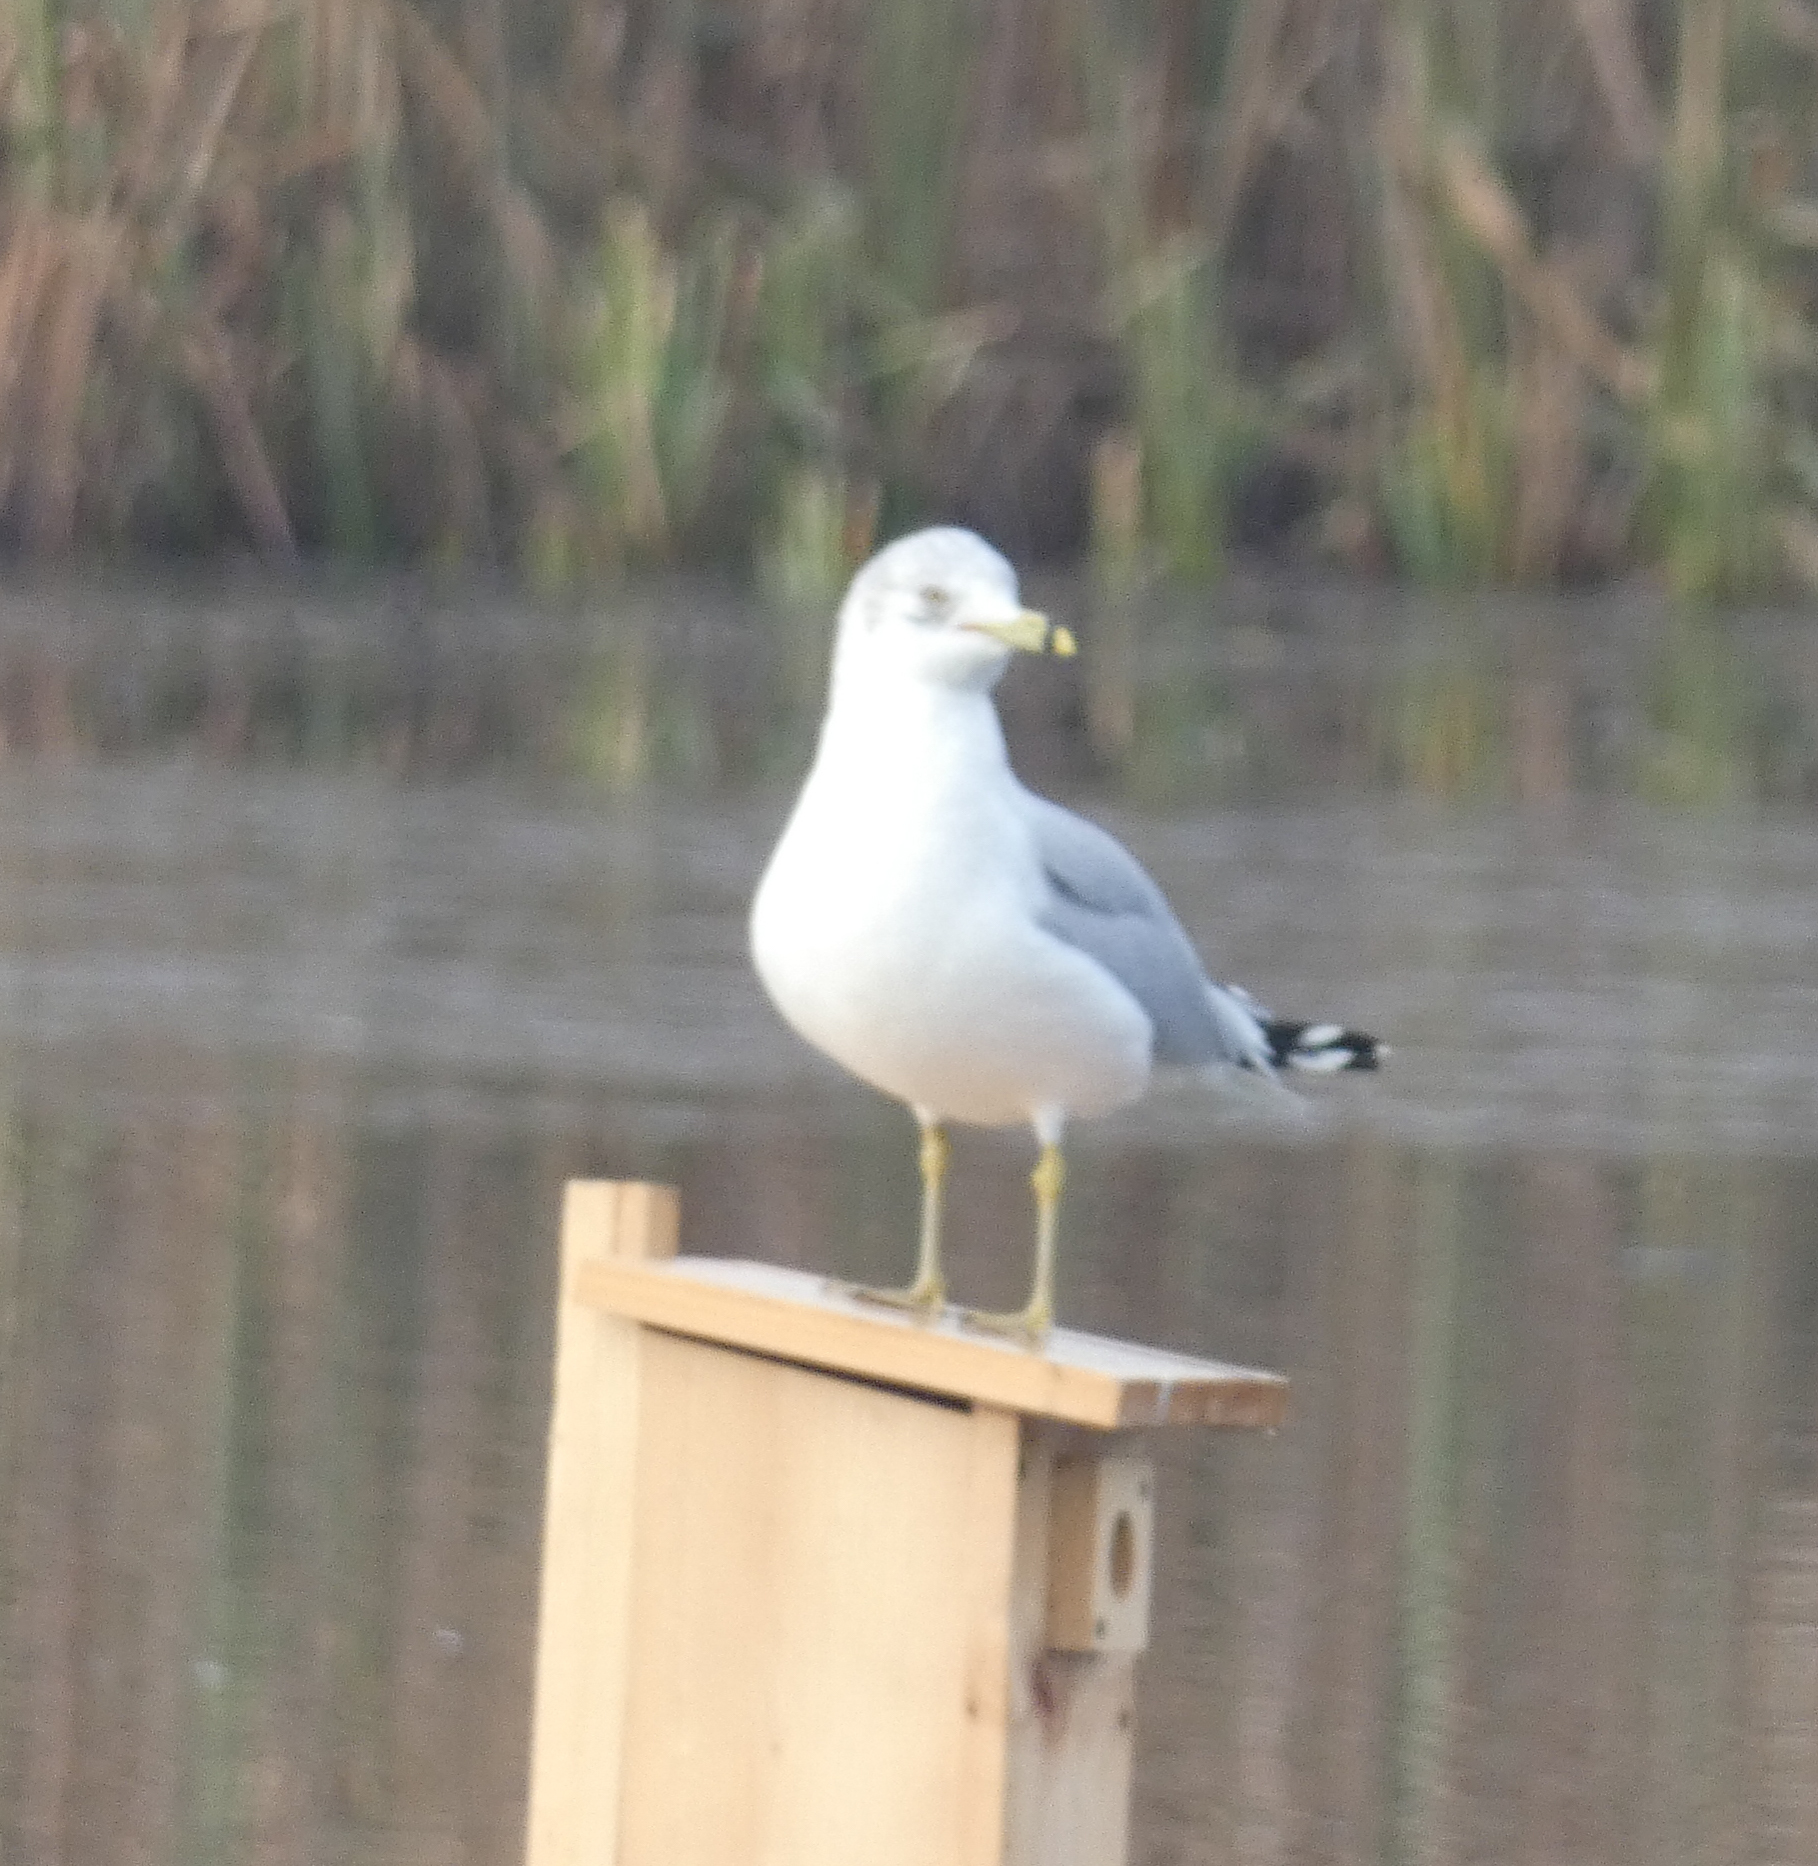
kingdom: Animalia
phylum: Chordata
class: Aves
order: Charadriiformes
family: Laridae
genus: Larus
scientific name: Larus delawarensis
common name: Ring-billed gull
